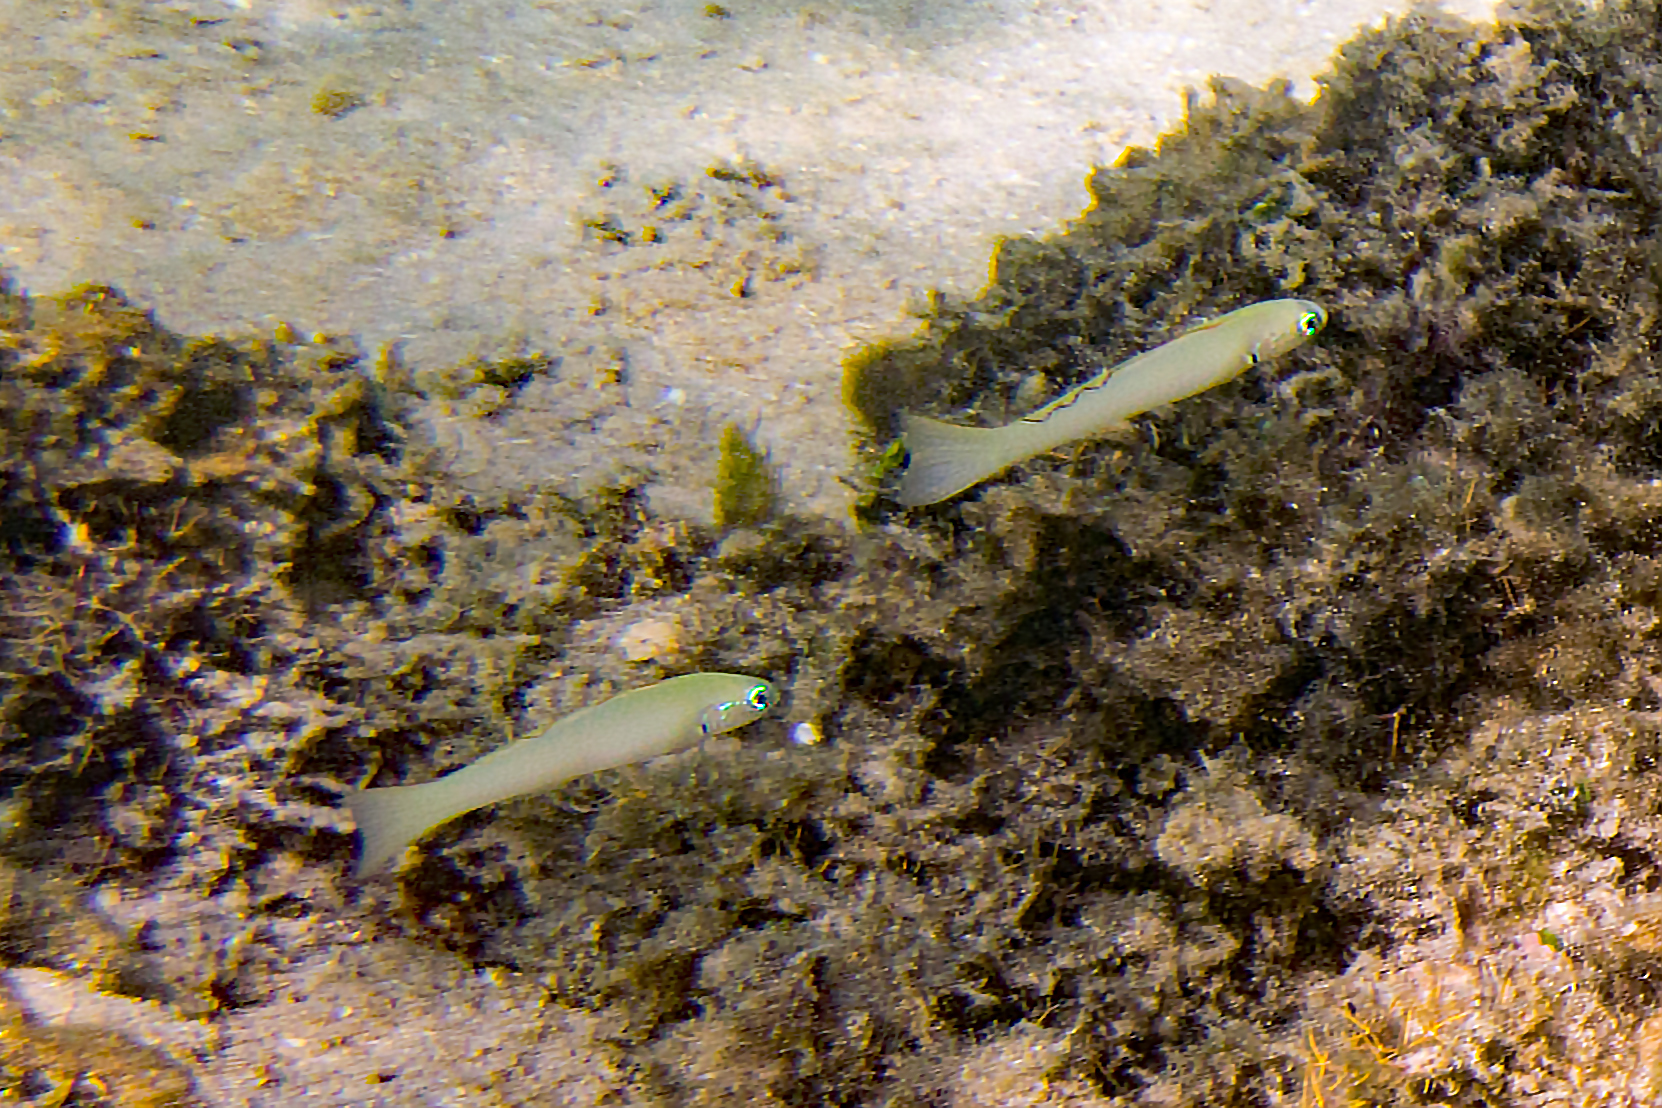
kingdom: Animalia
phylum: Chordata
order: Perciformes
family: Microdesmidae
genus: Ptereleotris
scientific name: Ptereleotris microlepis
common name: Blue gudgeon
